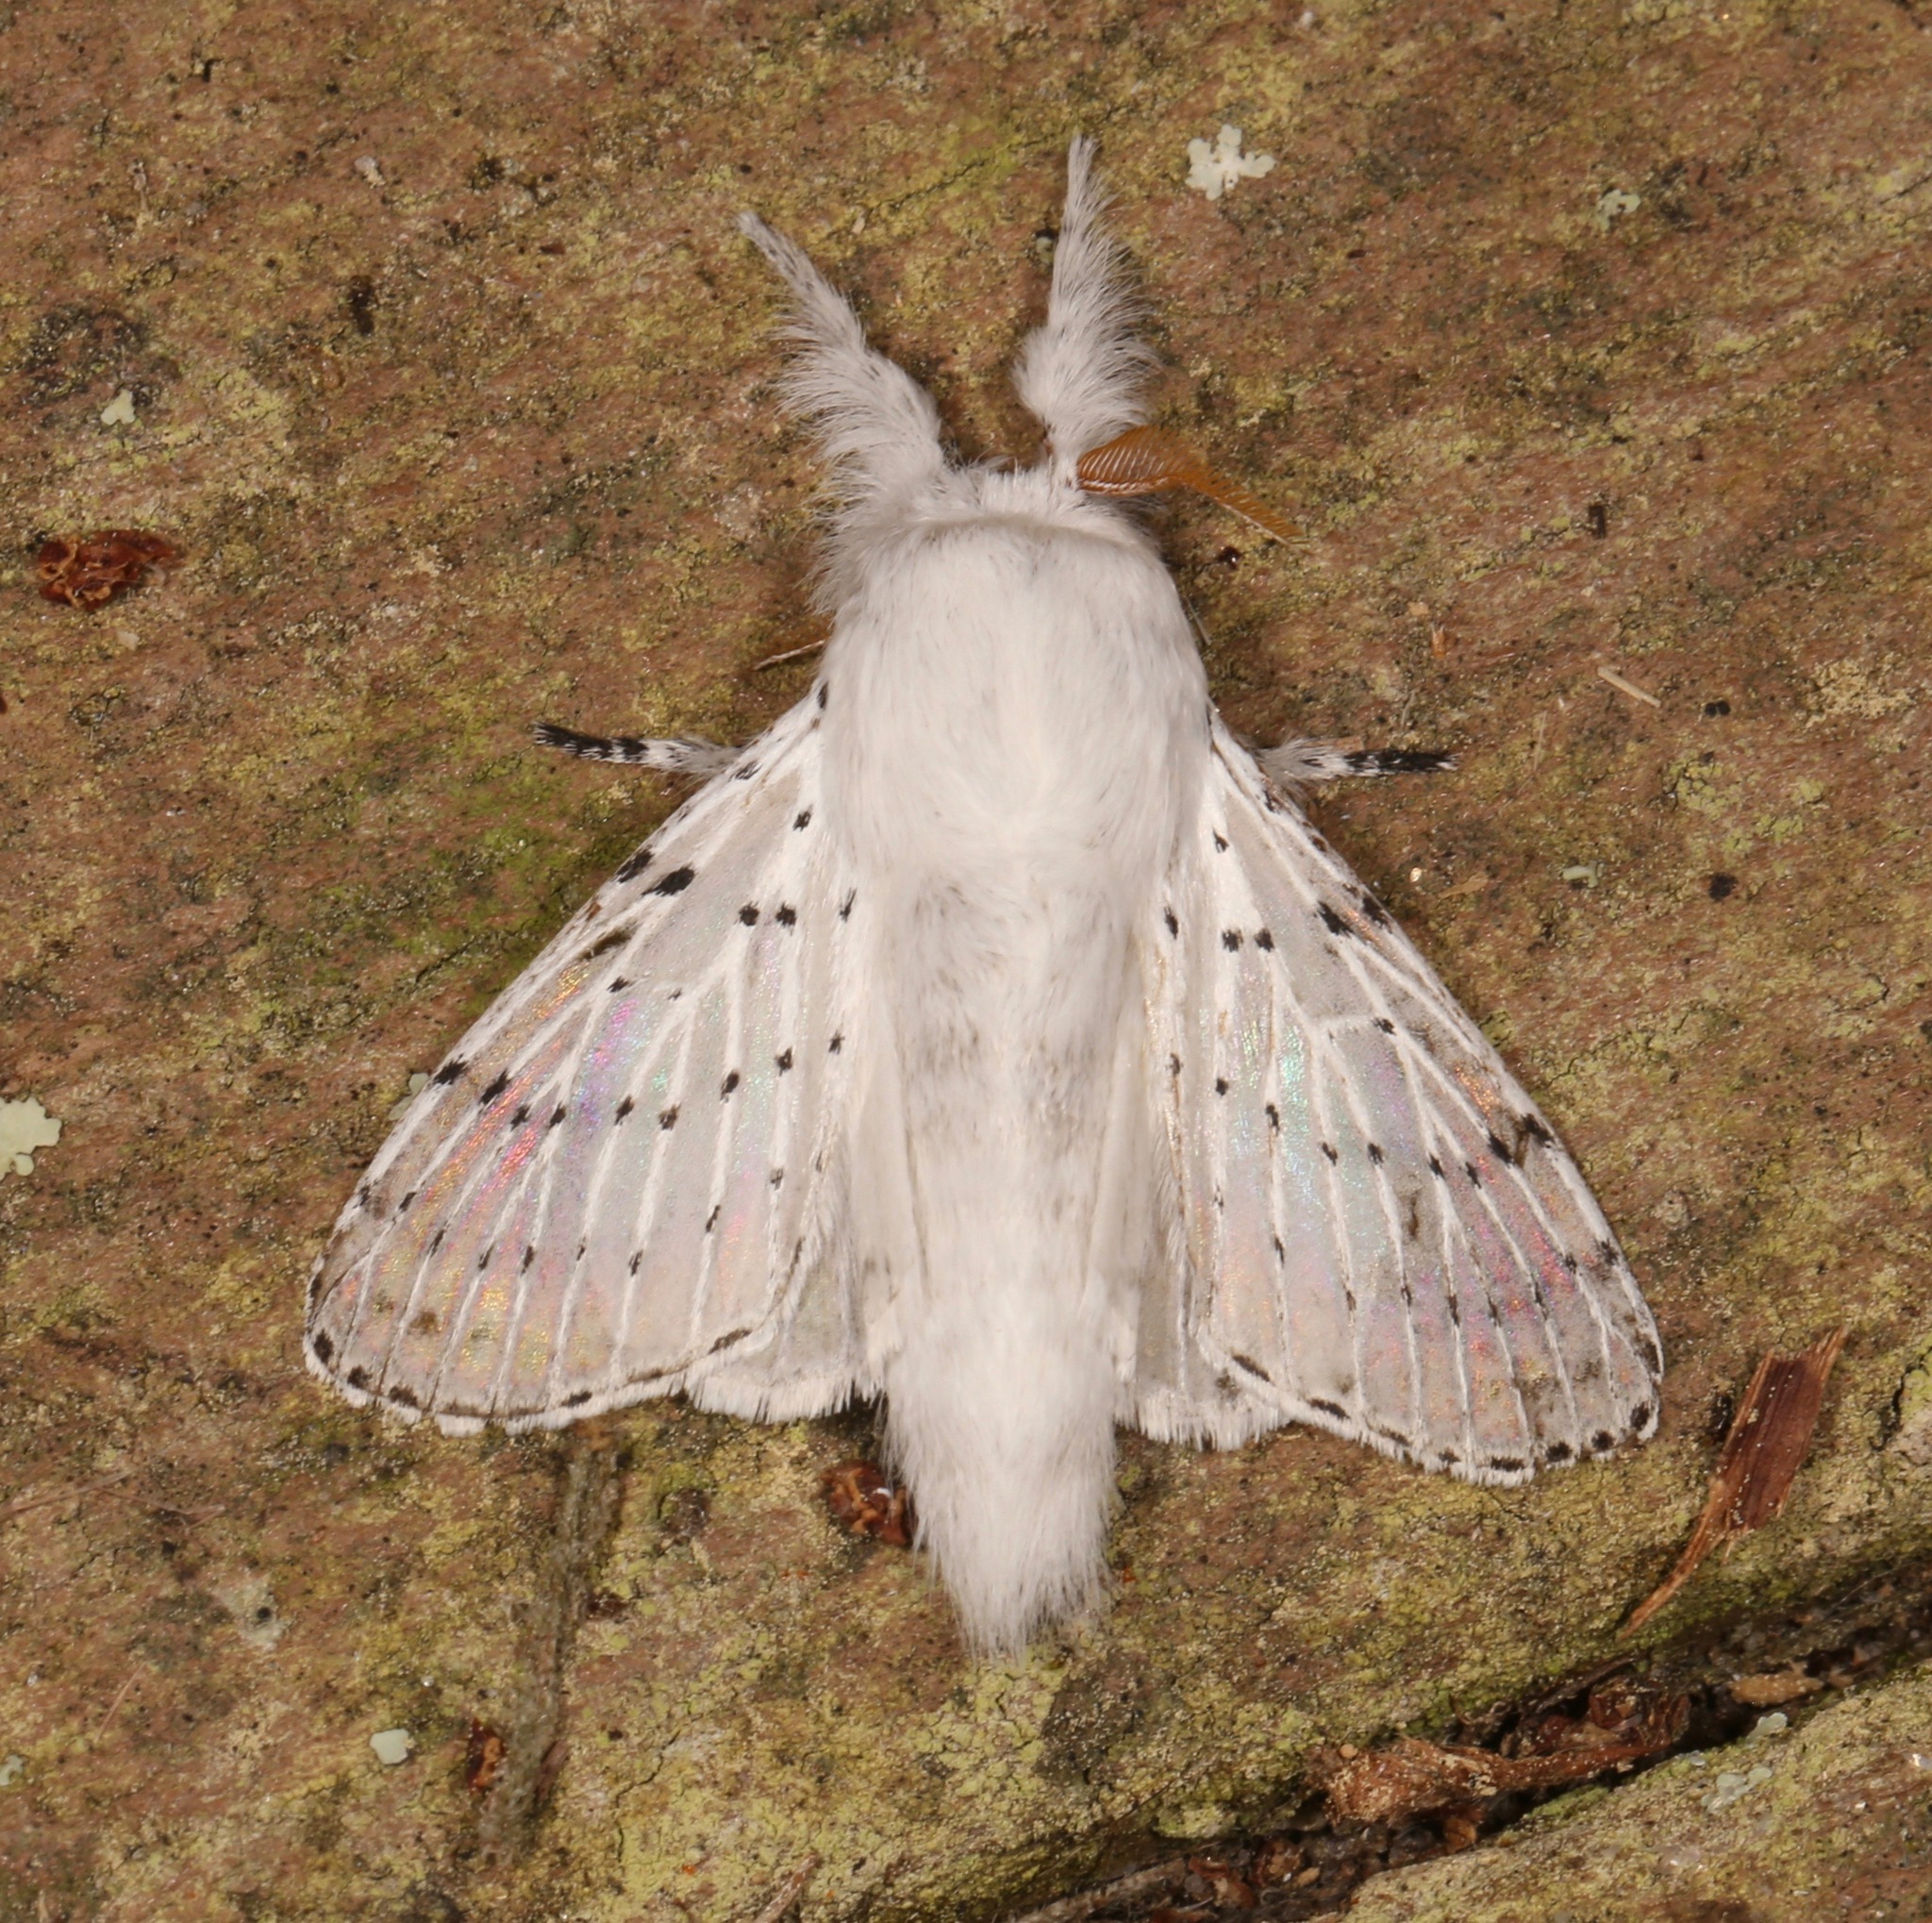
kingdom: Animalia
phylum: Arthropoda
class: Insecta
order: Lepidoptera
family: Lasiocampidae
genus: Artace
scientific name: Artace cribrarius
